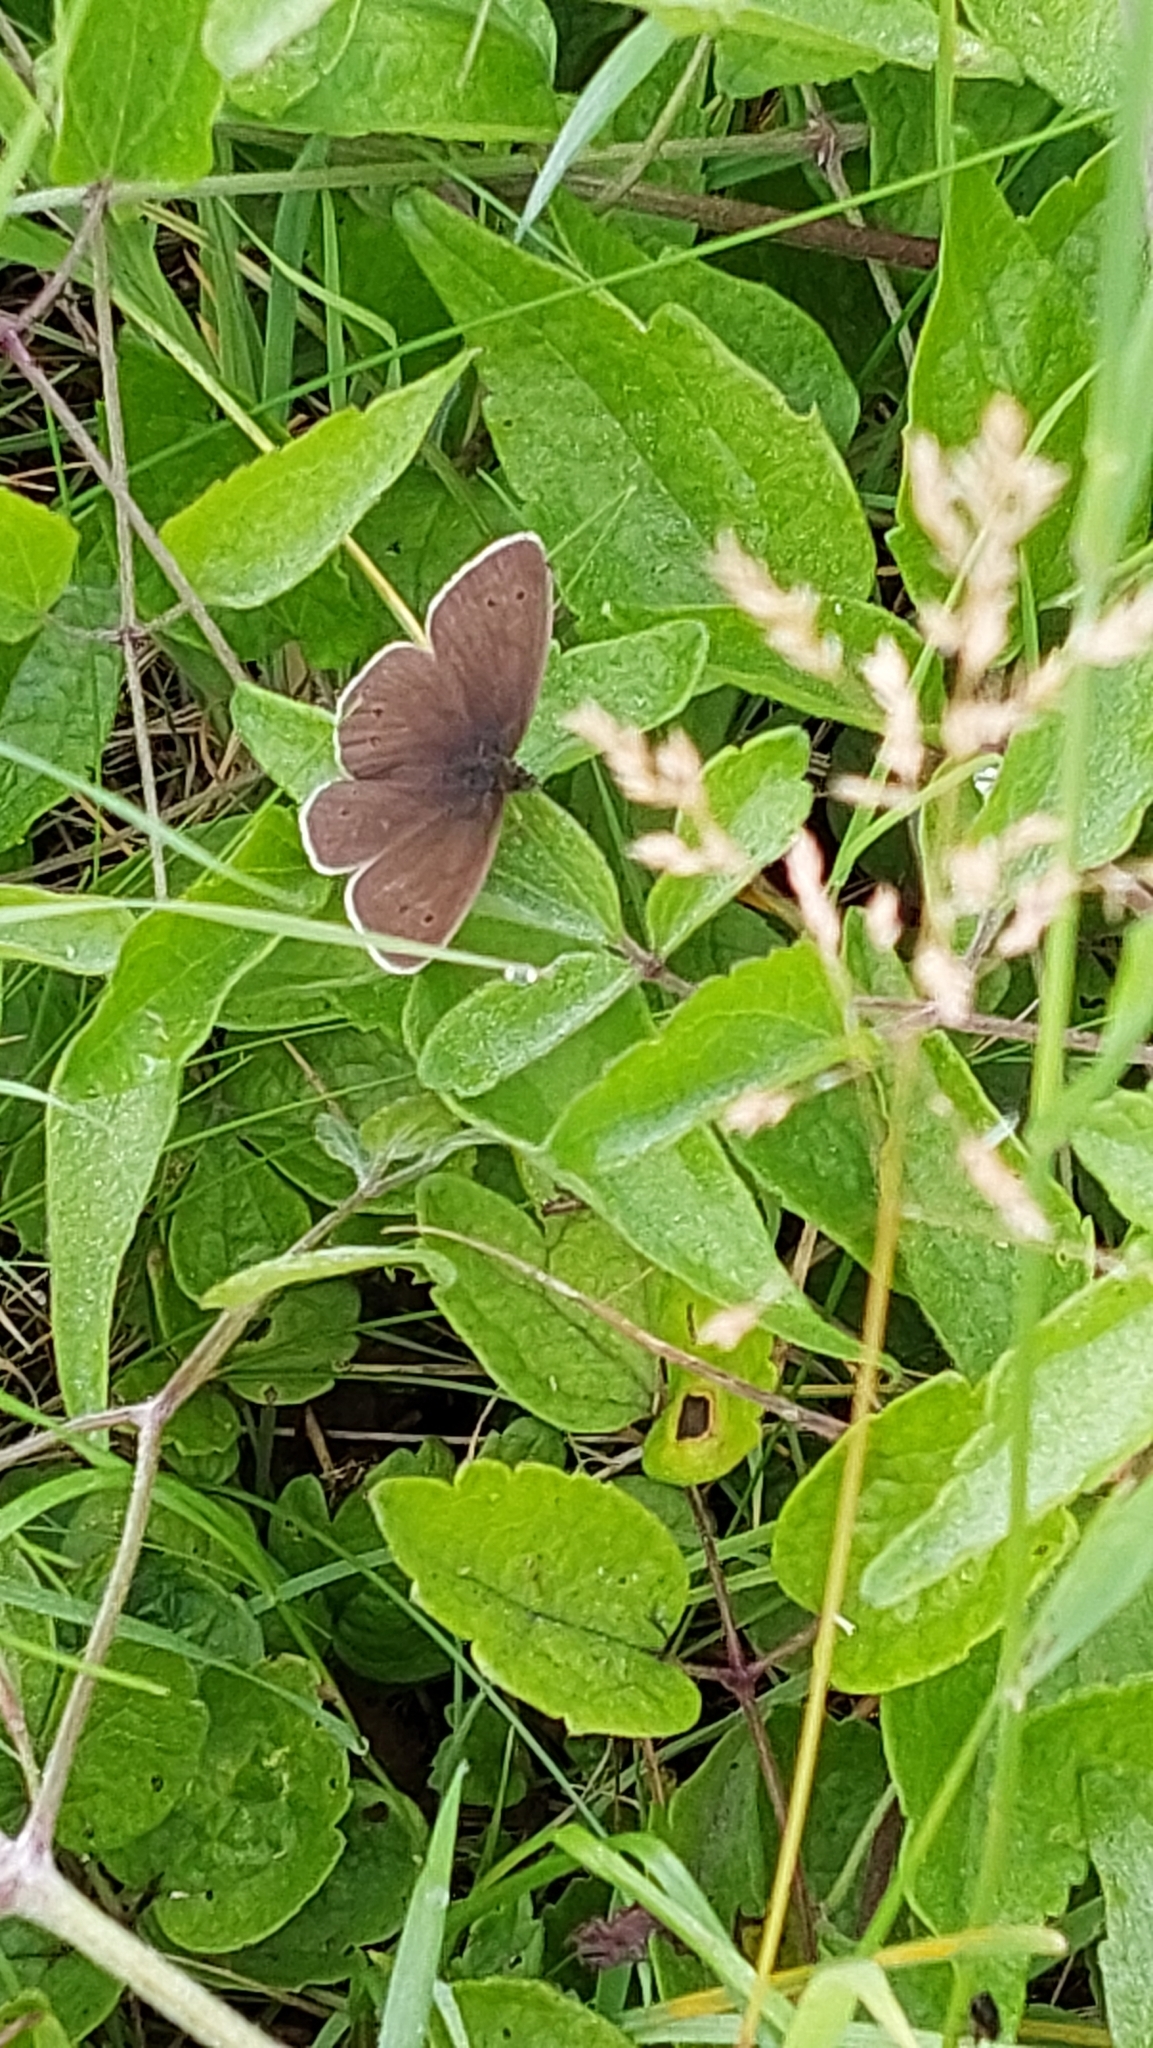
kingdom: Animalia
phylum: Arthropoda
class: Insecta
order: Lepidoptera
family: Nymphalidae
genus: Aphantopus
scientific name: Aphantopus hyperantus
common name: Ringlet
